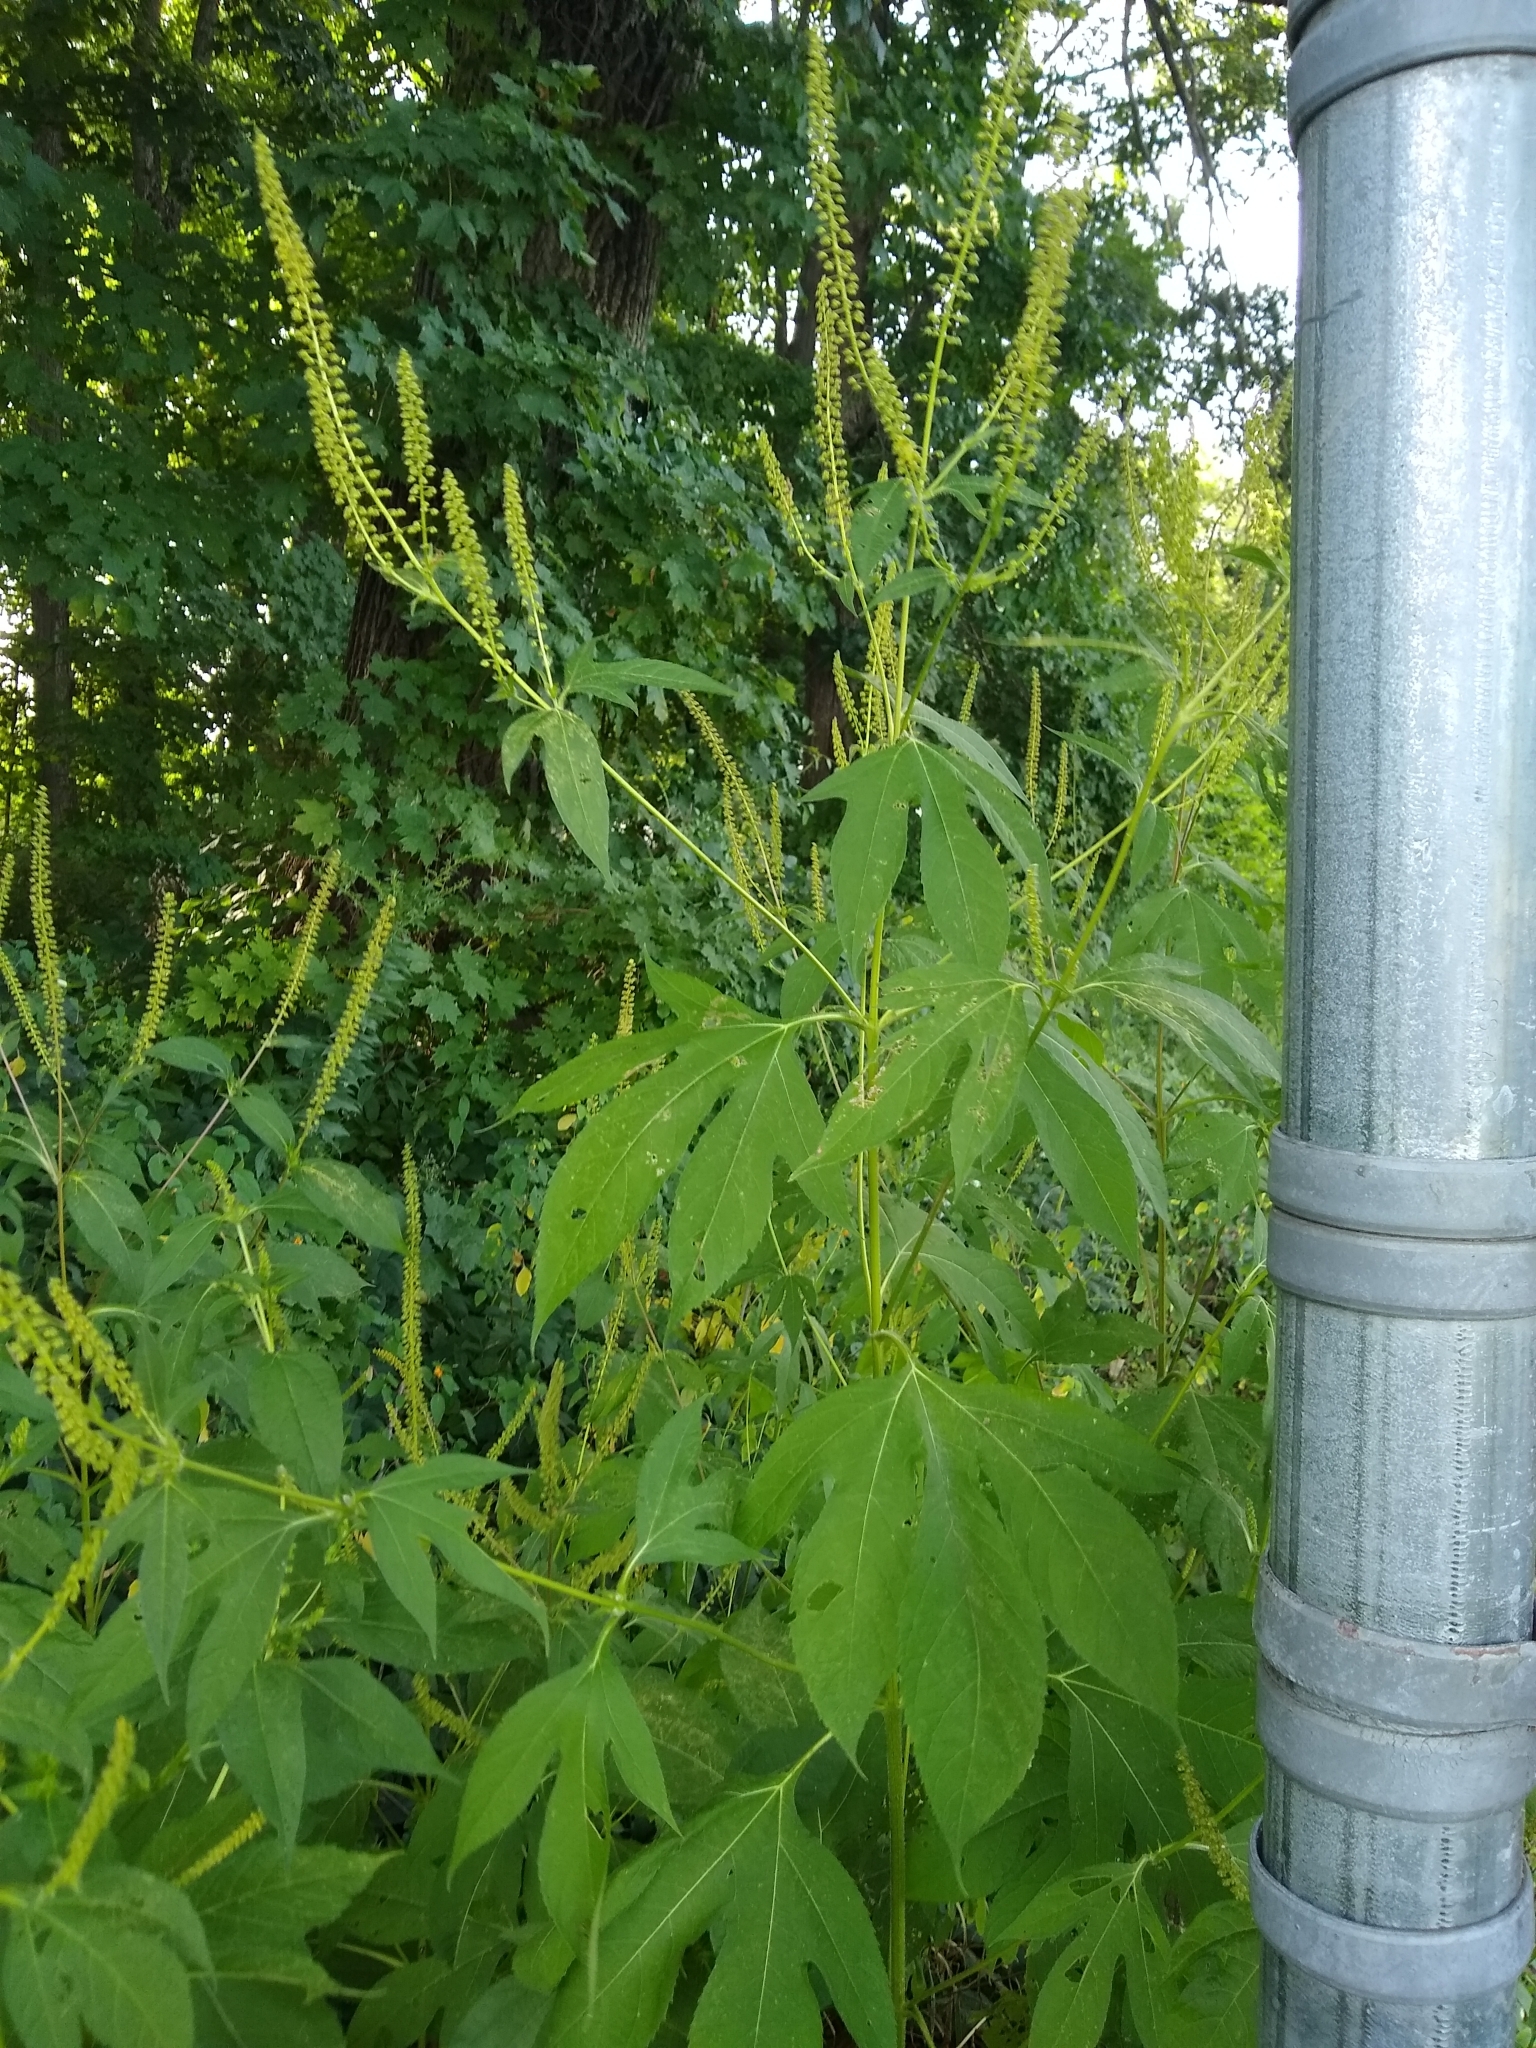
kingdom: Plantae
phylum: Tracheophyta
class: Magnoliopsida
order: Asterales
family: Asteraceae
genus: Ambrosia
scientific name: Ambrosia trifida
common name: Giant ragweed
